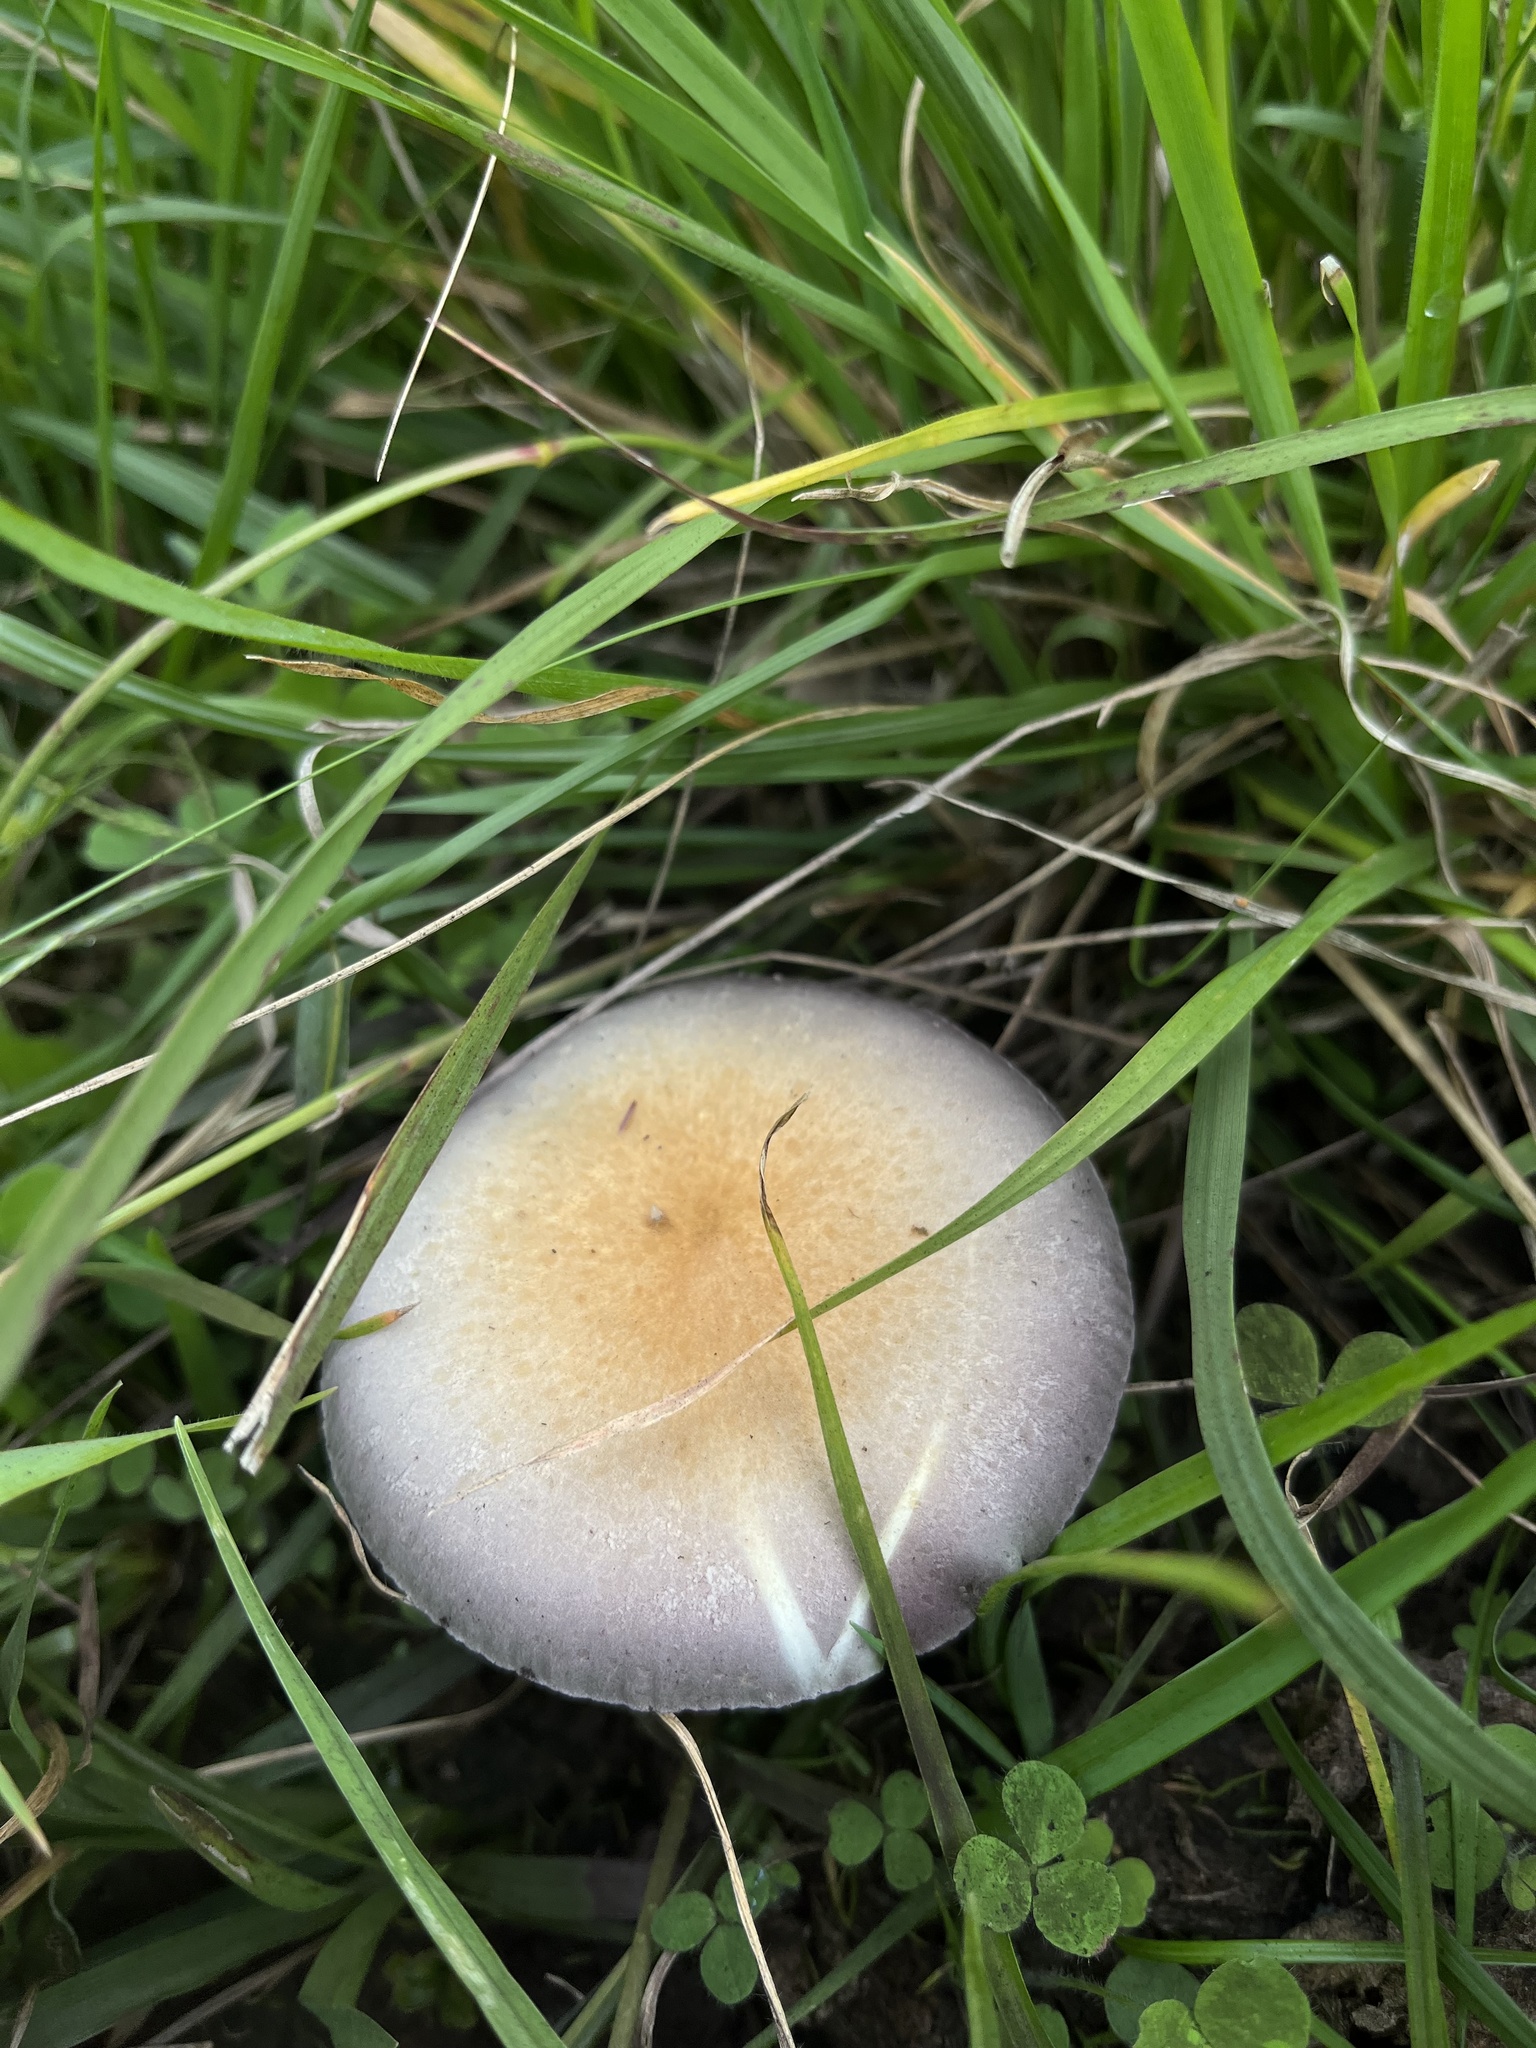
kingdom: Fungi
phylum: Basidiomycota
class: Agaricomycetes
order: Agaricales
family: Hymenogastraceae
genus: Psilocybe
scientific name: Psilocybe cubensis
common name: Golden brownie
